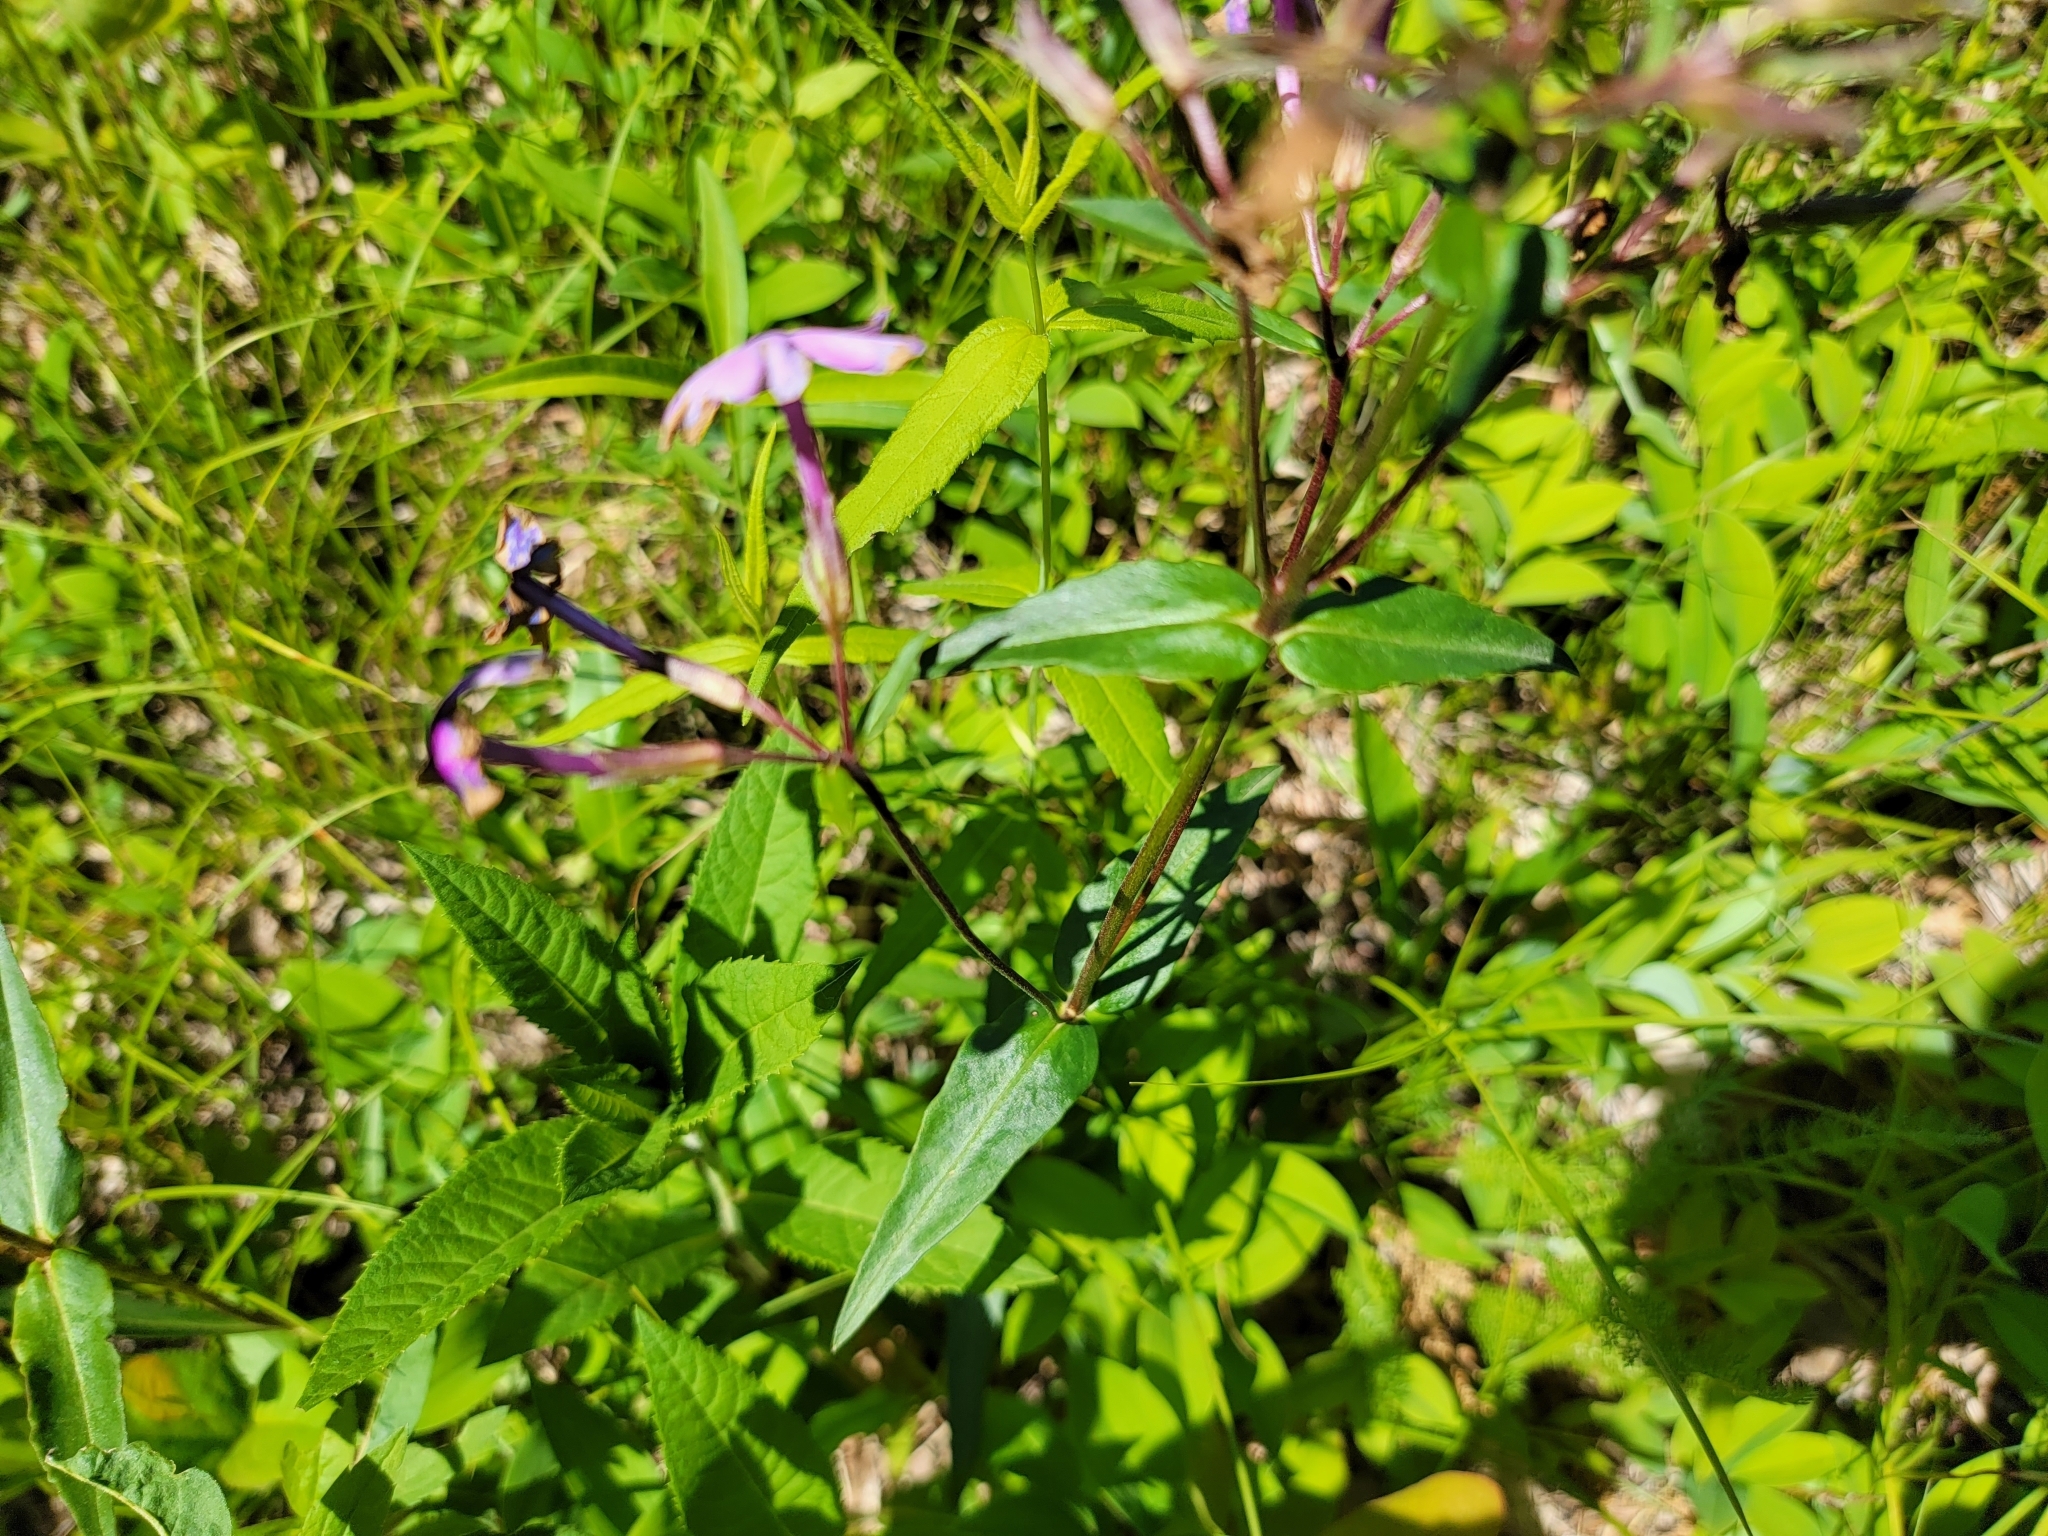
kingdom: Plantae
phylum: Tracheophyta
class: Magnoliopsida
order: Ericales
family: Polemoniaceae
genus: Phlox
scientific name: Phlox ovata
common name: Mountain phlox
